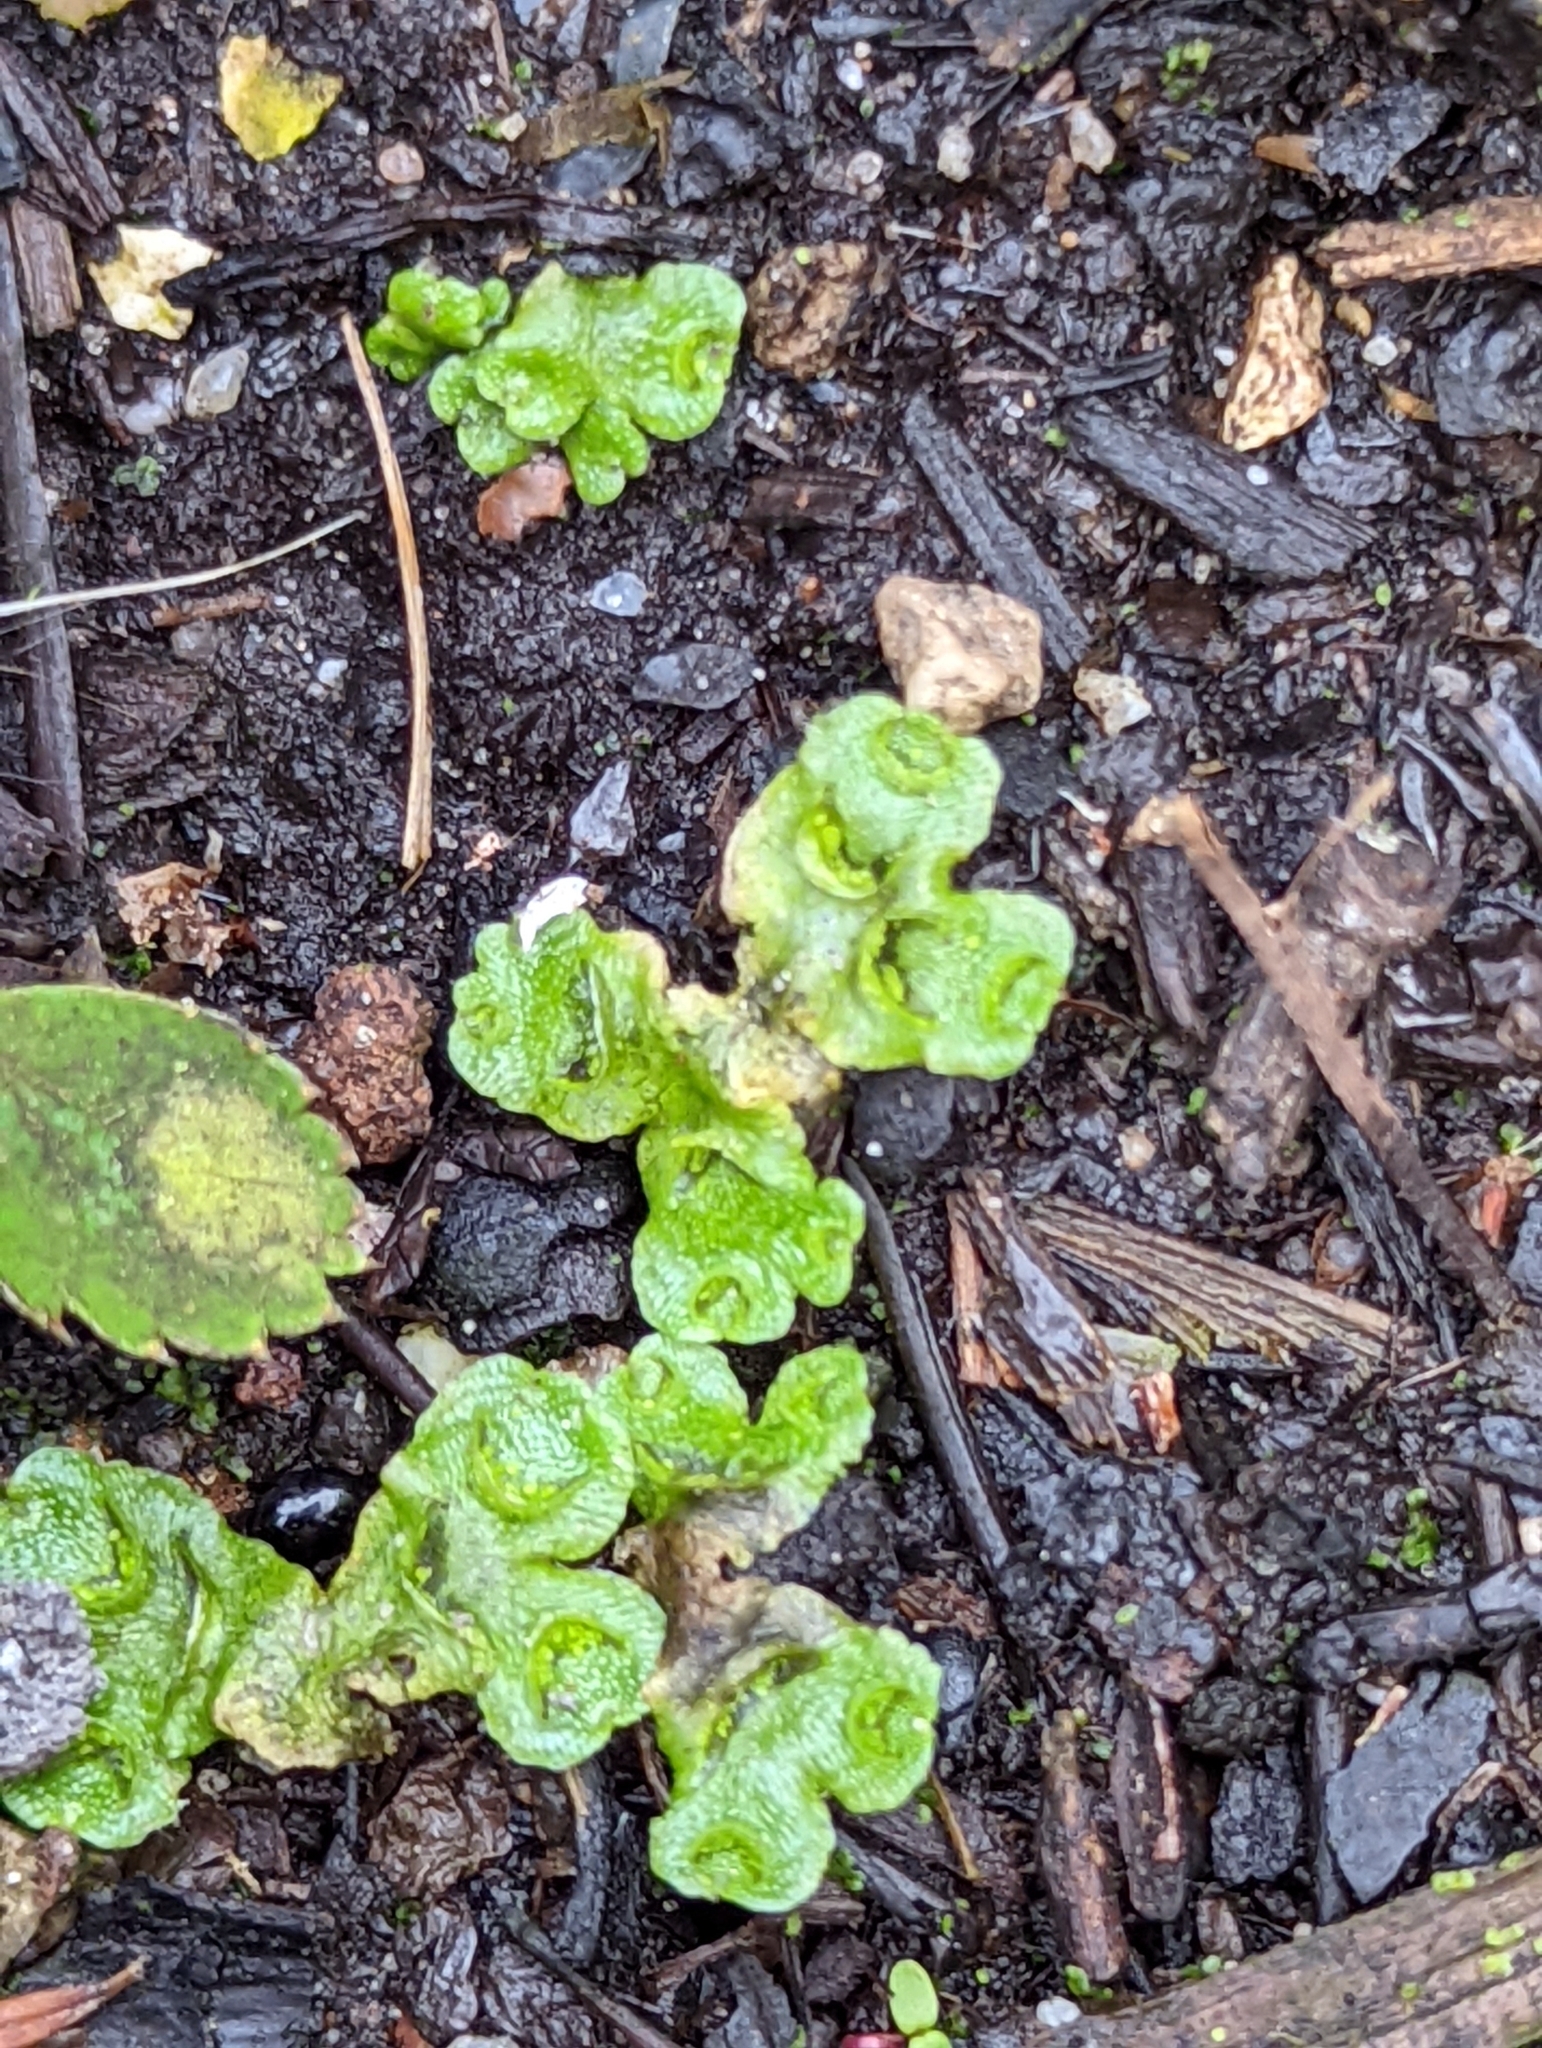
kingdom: Plantae
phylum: Marchantiophyta
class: Marchantiopsida
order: Lunulariales
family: Lunulariaceae
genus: Lunularia
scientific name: Lunularia cruciata
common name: Crescent-cup liverwort
